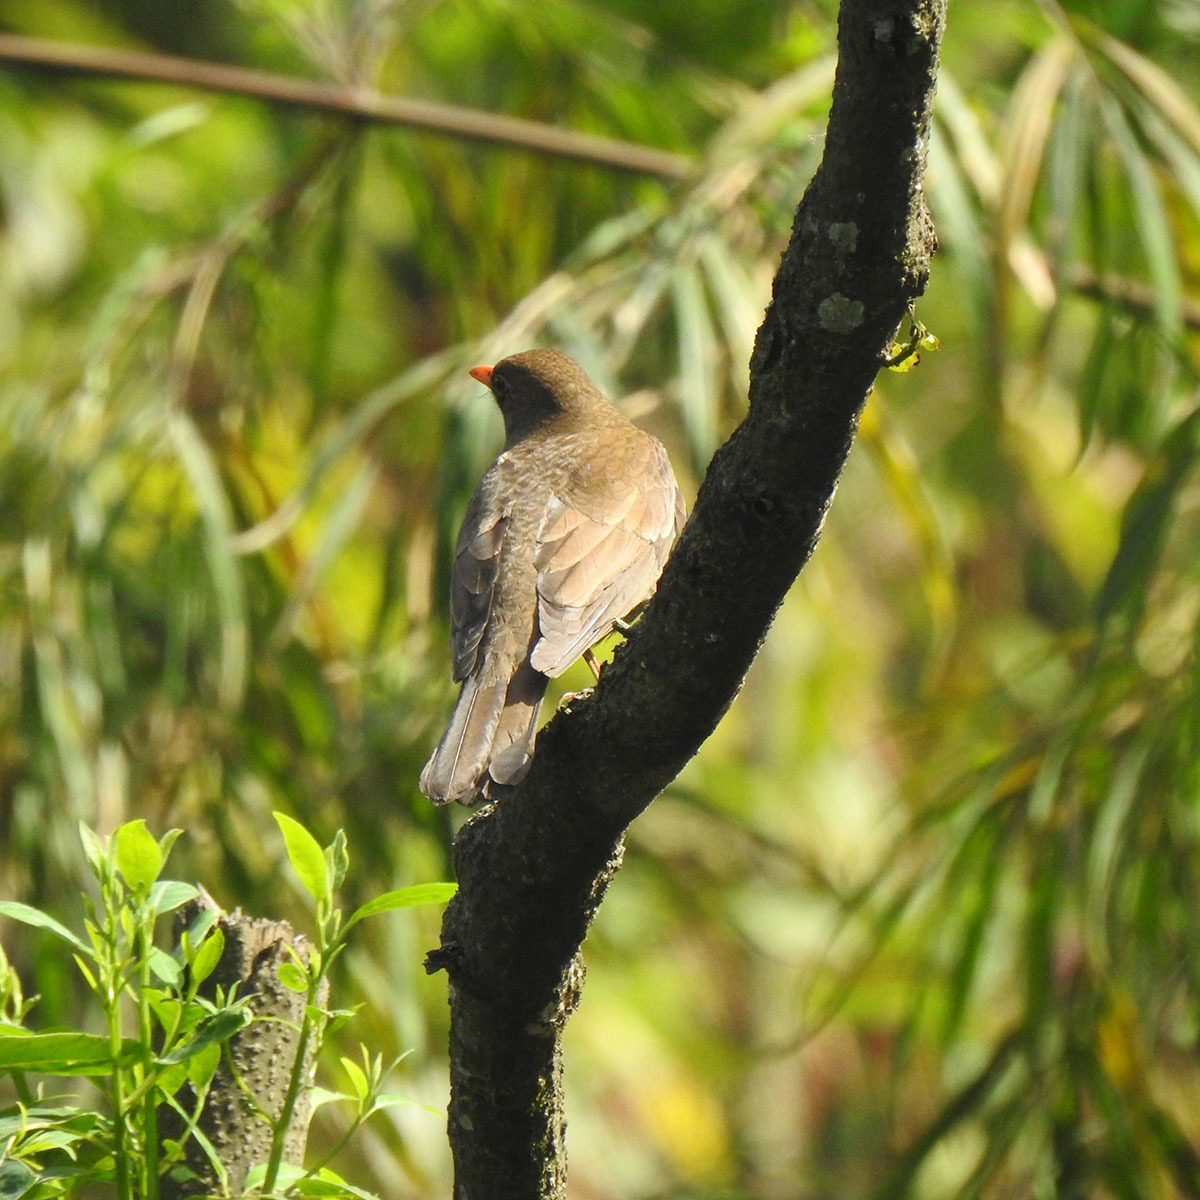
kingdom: Animalia
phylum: Chordata
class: Aves
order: Passeriformes
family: Turdidae
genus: Turdus
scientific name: Turdus boulboul
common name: Grey-winged blackbird
